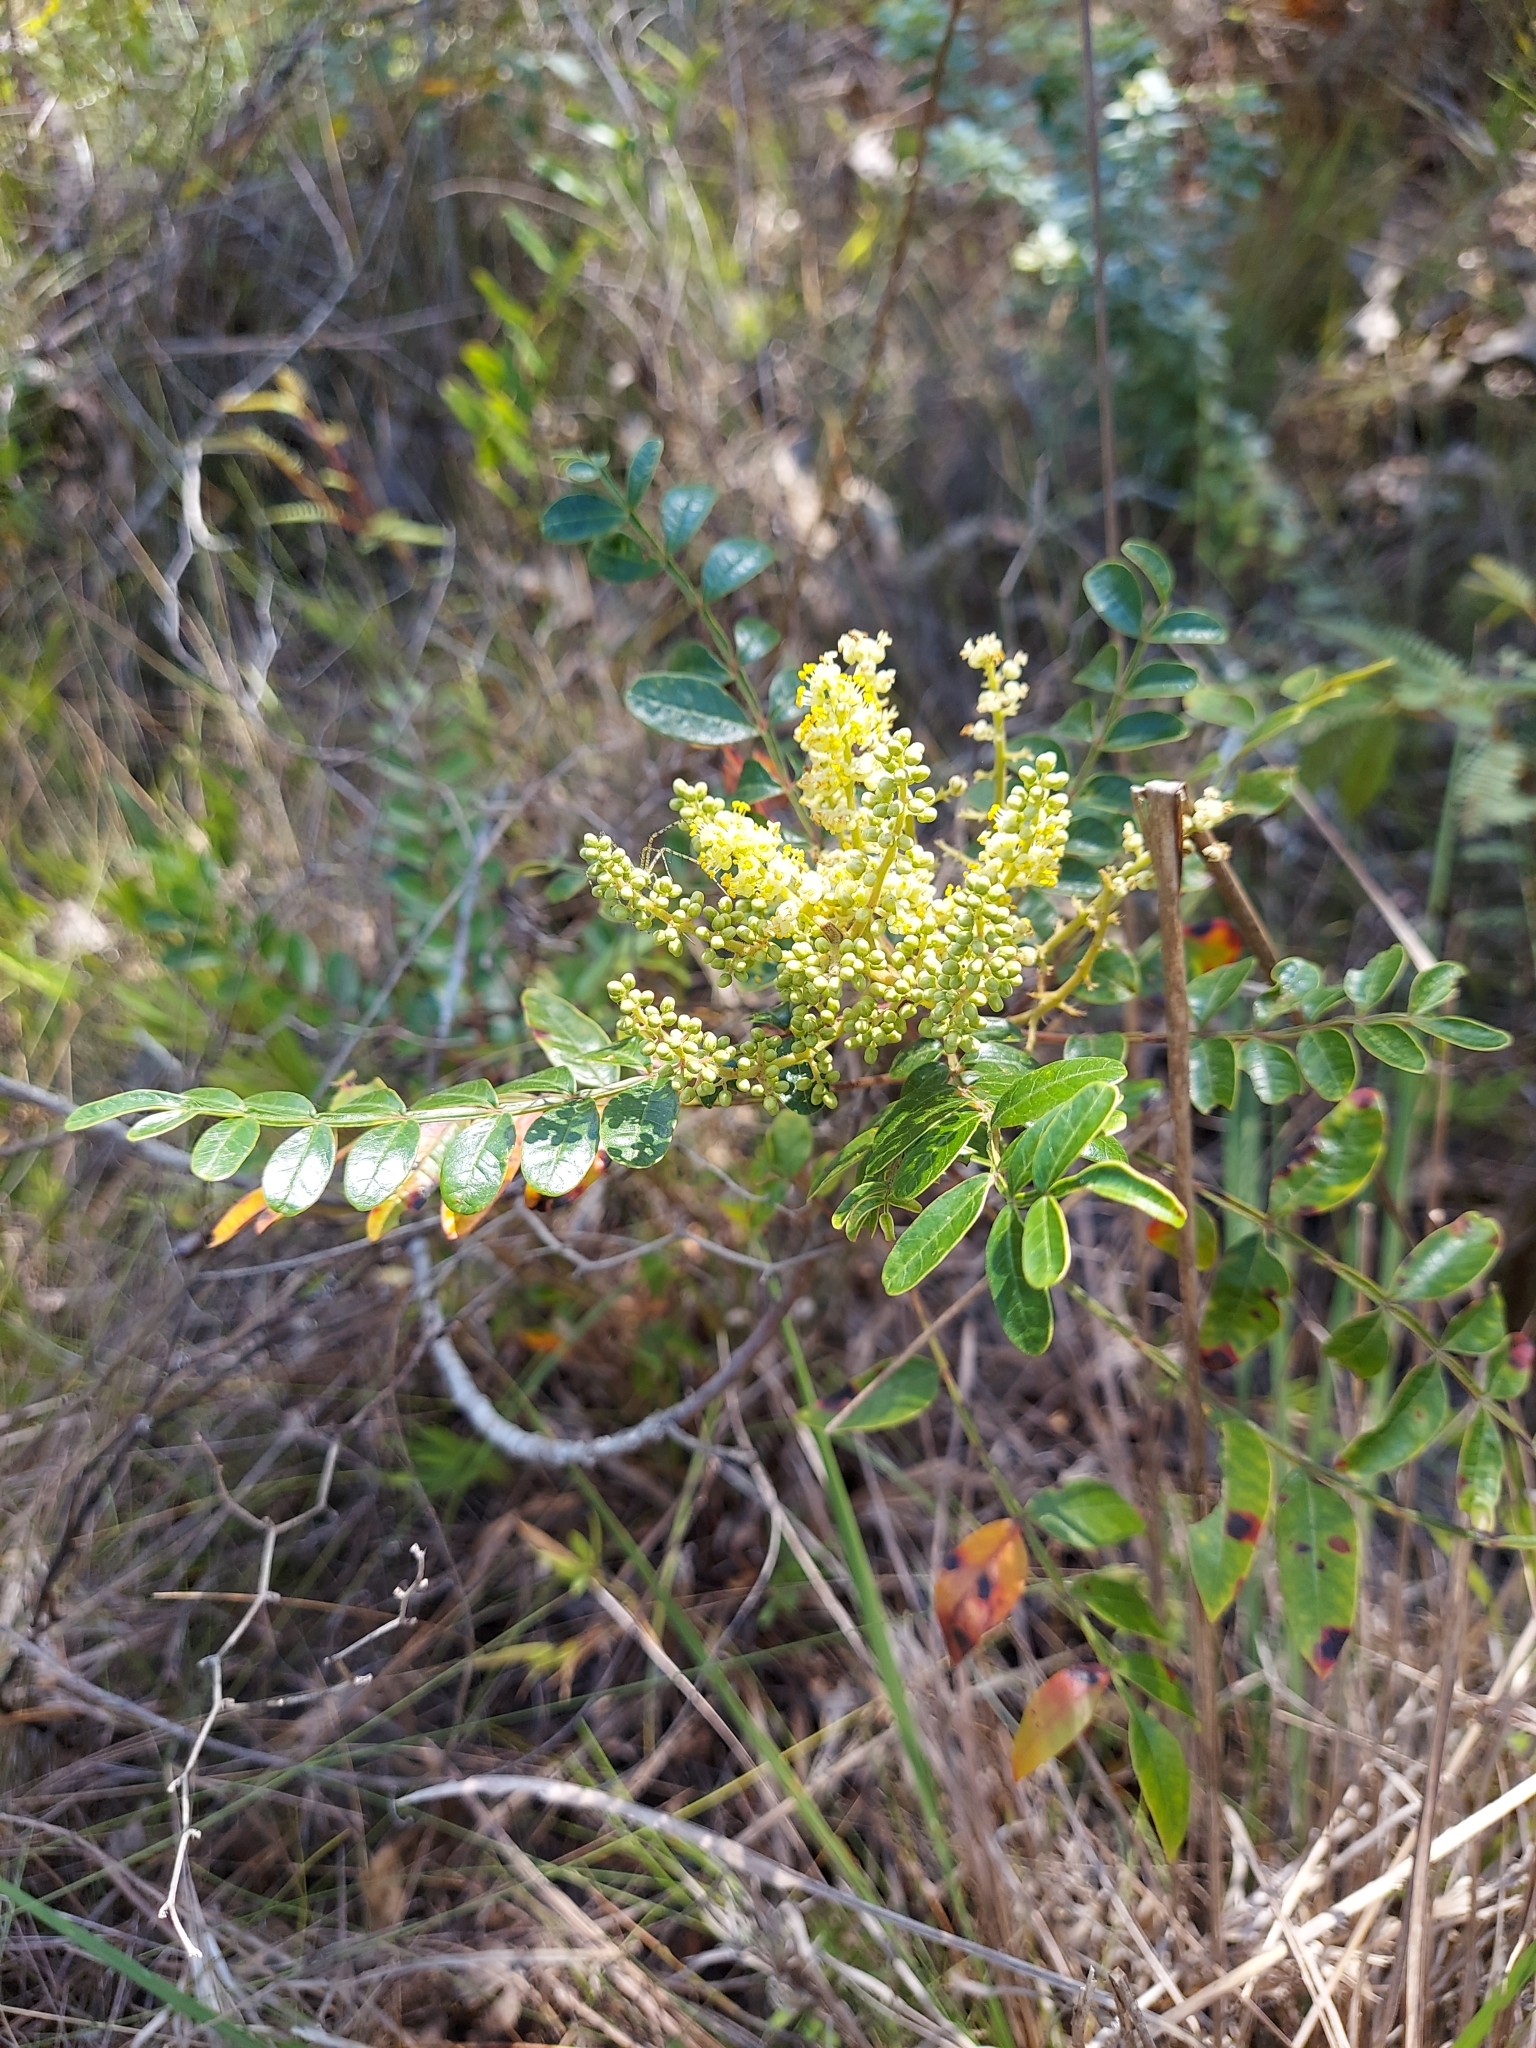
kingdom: Plantae
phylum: Tracheophyta
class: Magnoliopsida
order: Sapindales
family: Anacardiaceae
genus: Rhus
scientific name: Rhus copallina
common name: Shining sumac
